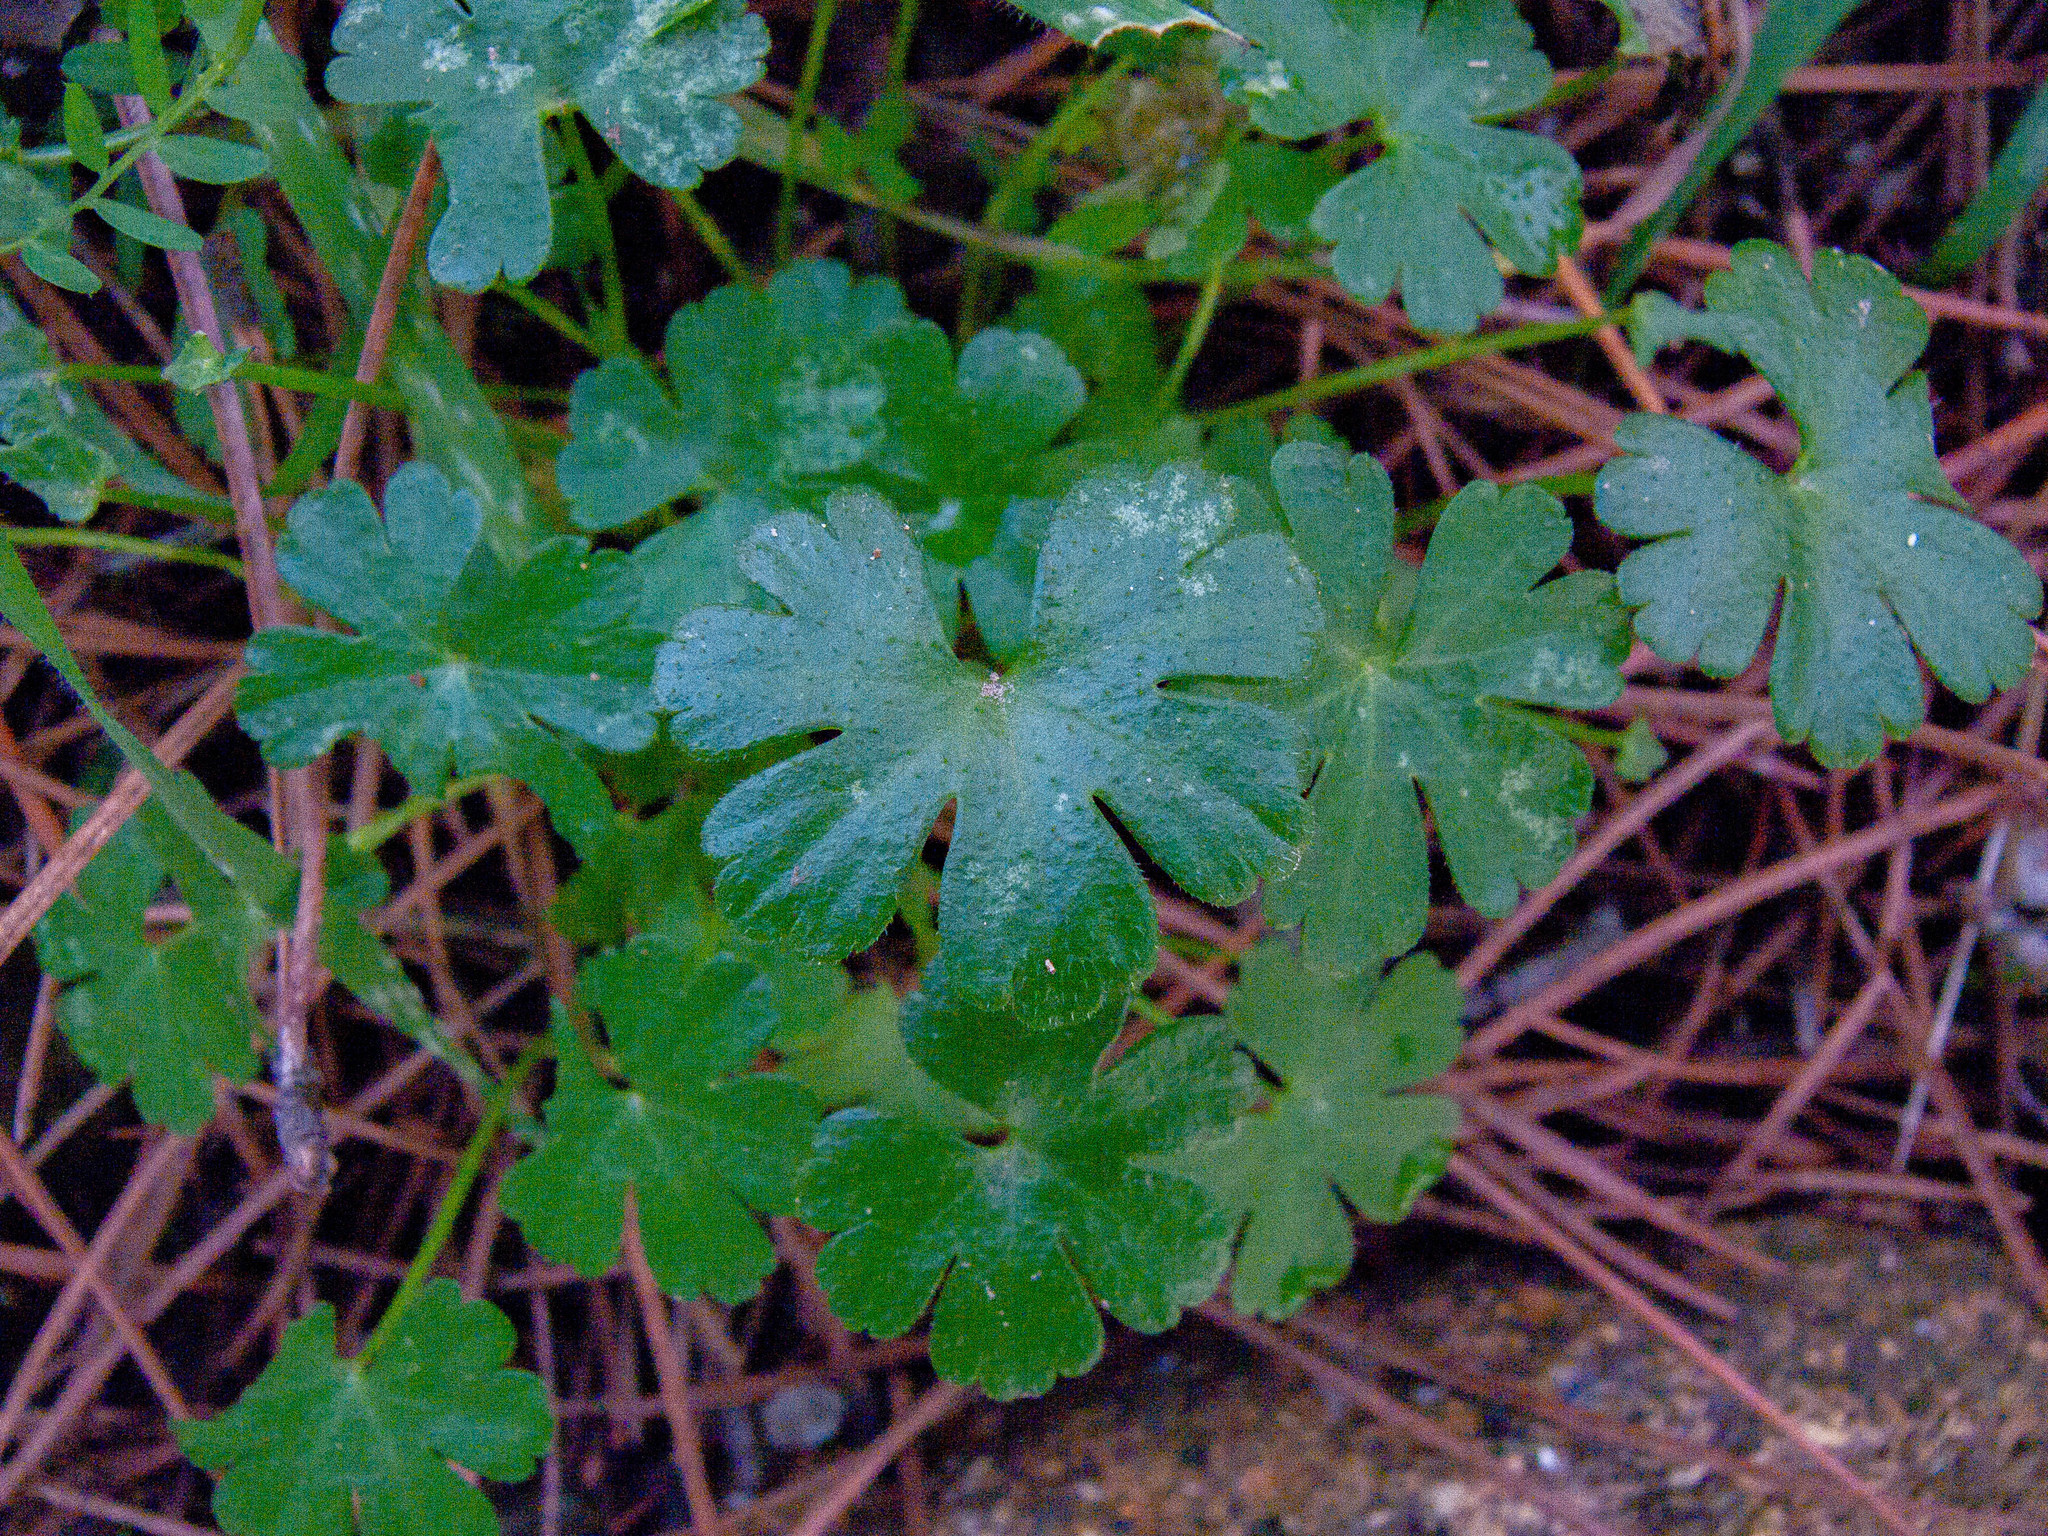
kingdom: Plantae
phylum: Tracheophyta
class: Magnoliopsida
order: Geraniales
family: Geraniaceae
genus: Geranium
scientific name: Geranium lucidum
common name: Shining crane's-bill
